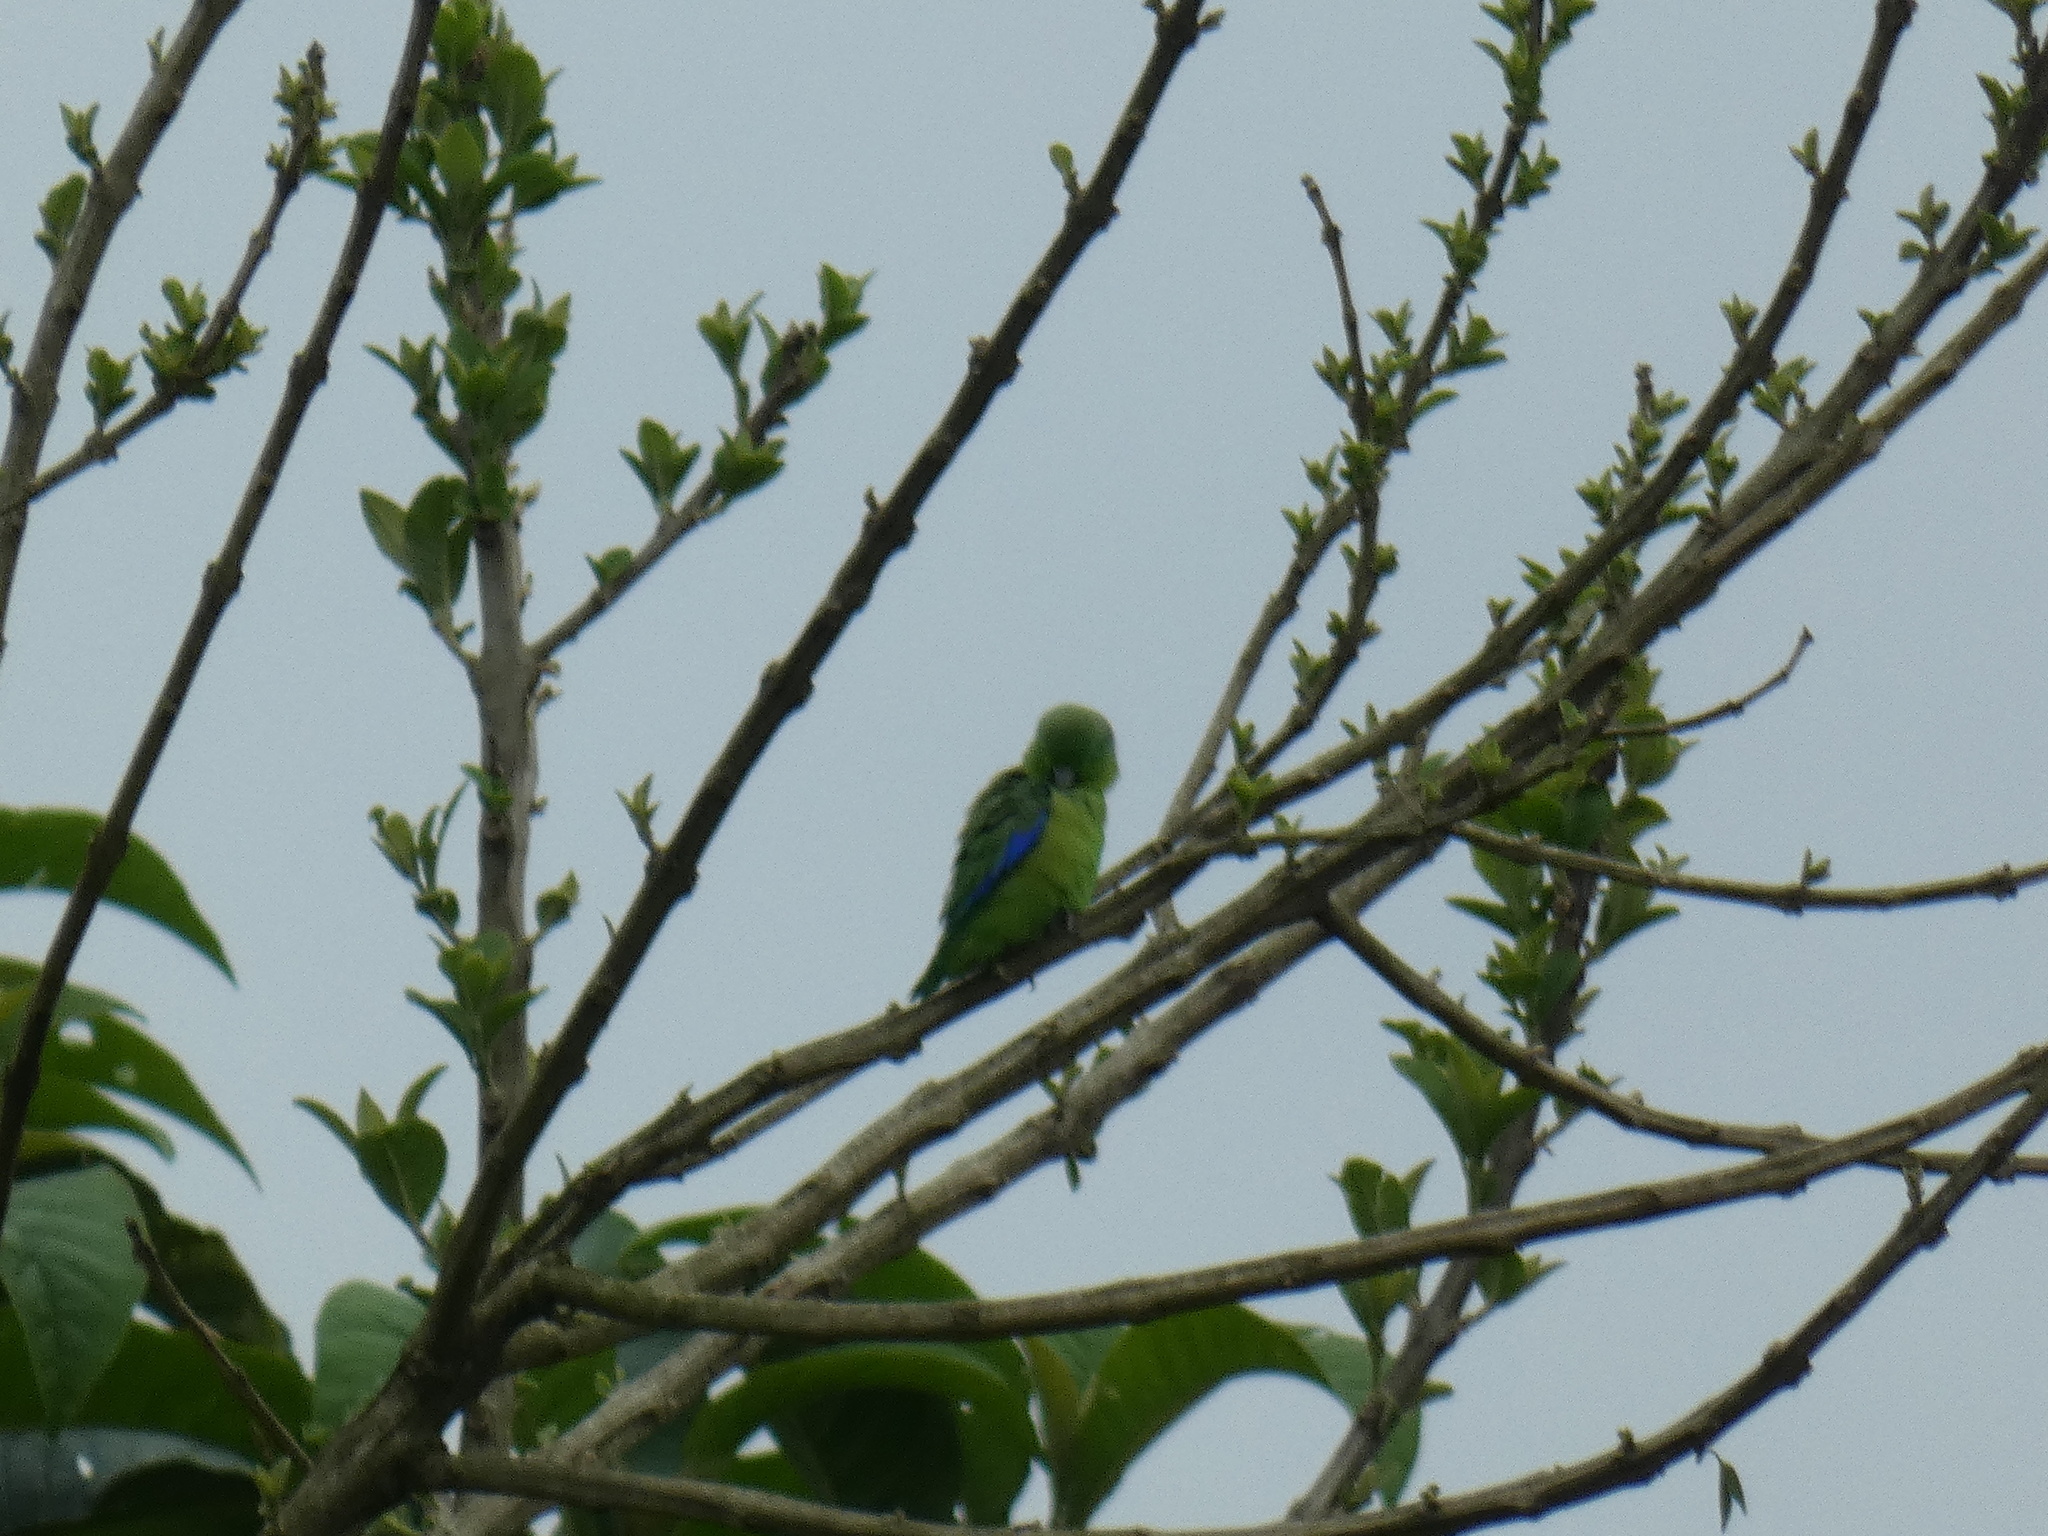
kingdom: Animalia
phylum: Chordata
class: Aves
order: Psittaciformes
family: Psittacidae
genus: Forpus
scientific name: Forpus xanthopterygius
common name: Blue-winged parrotlet
